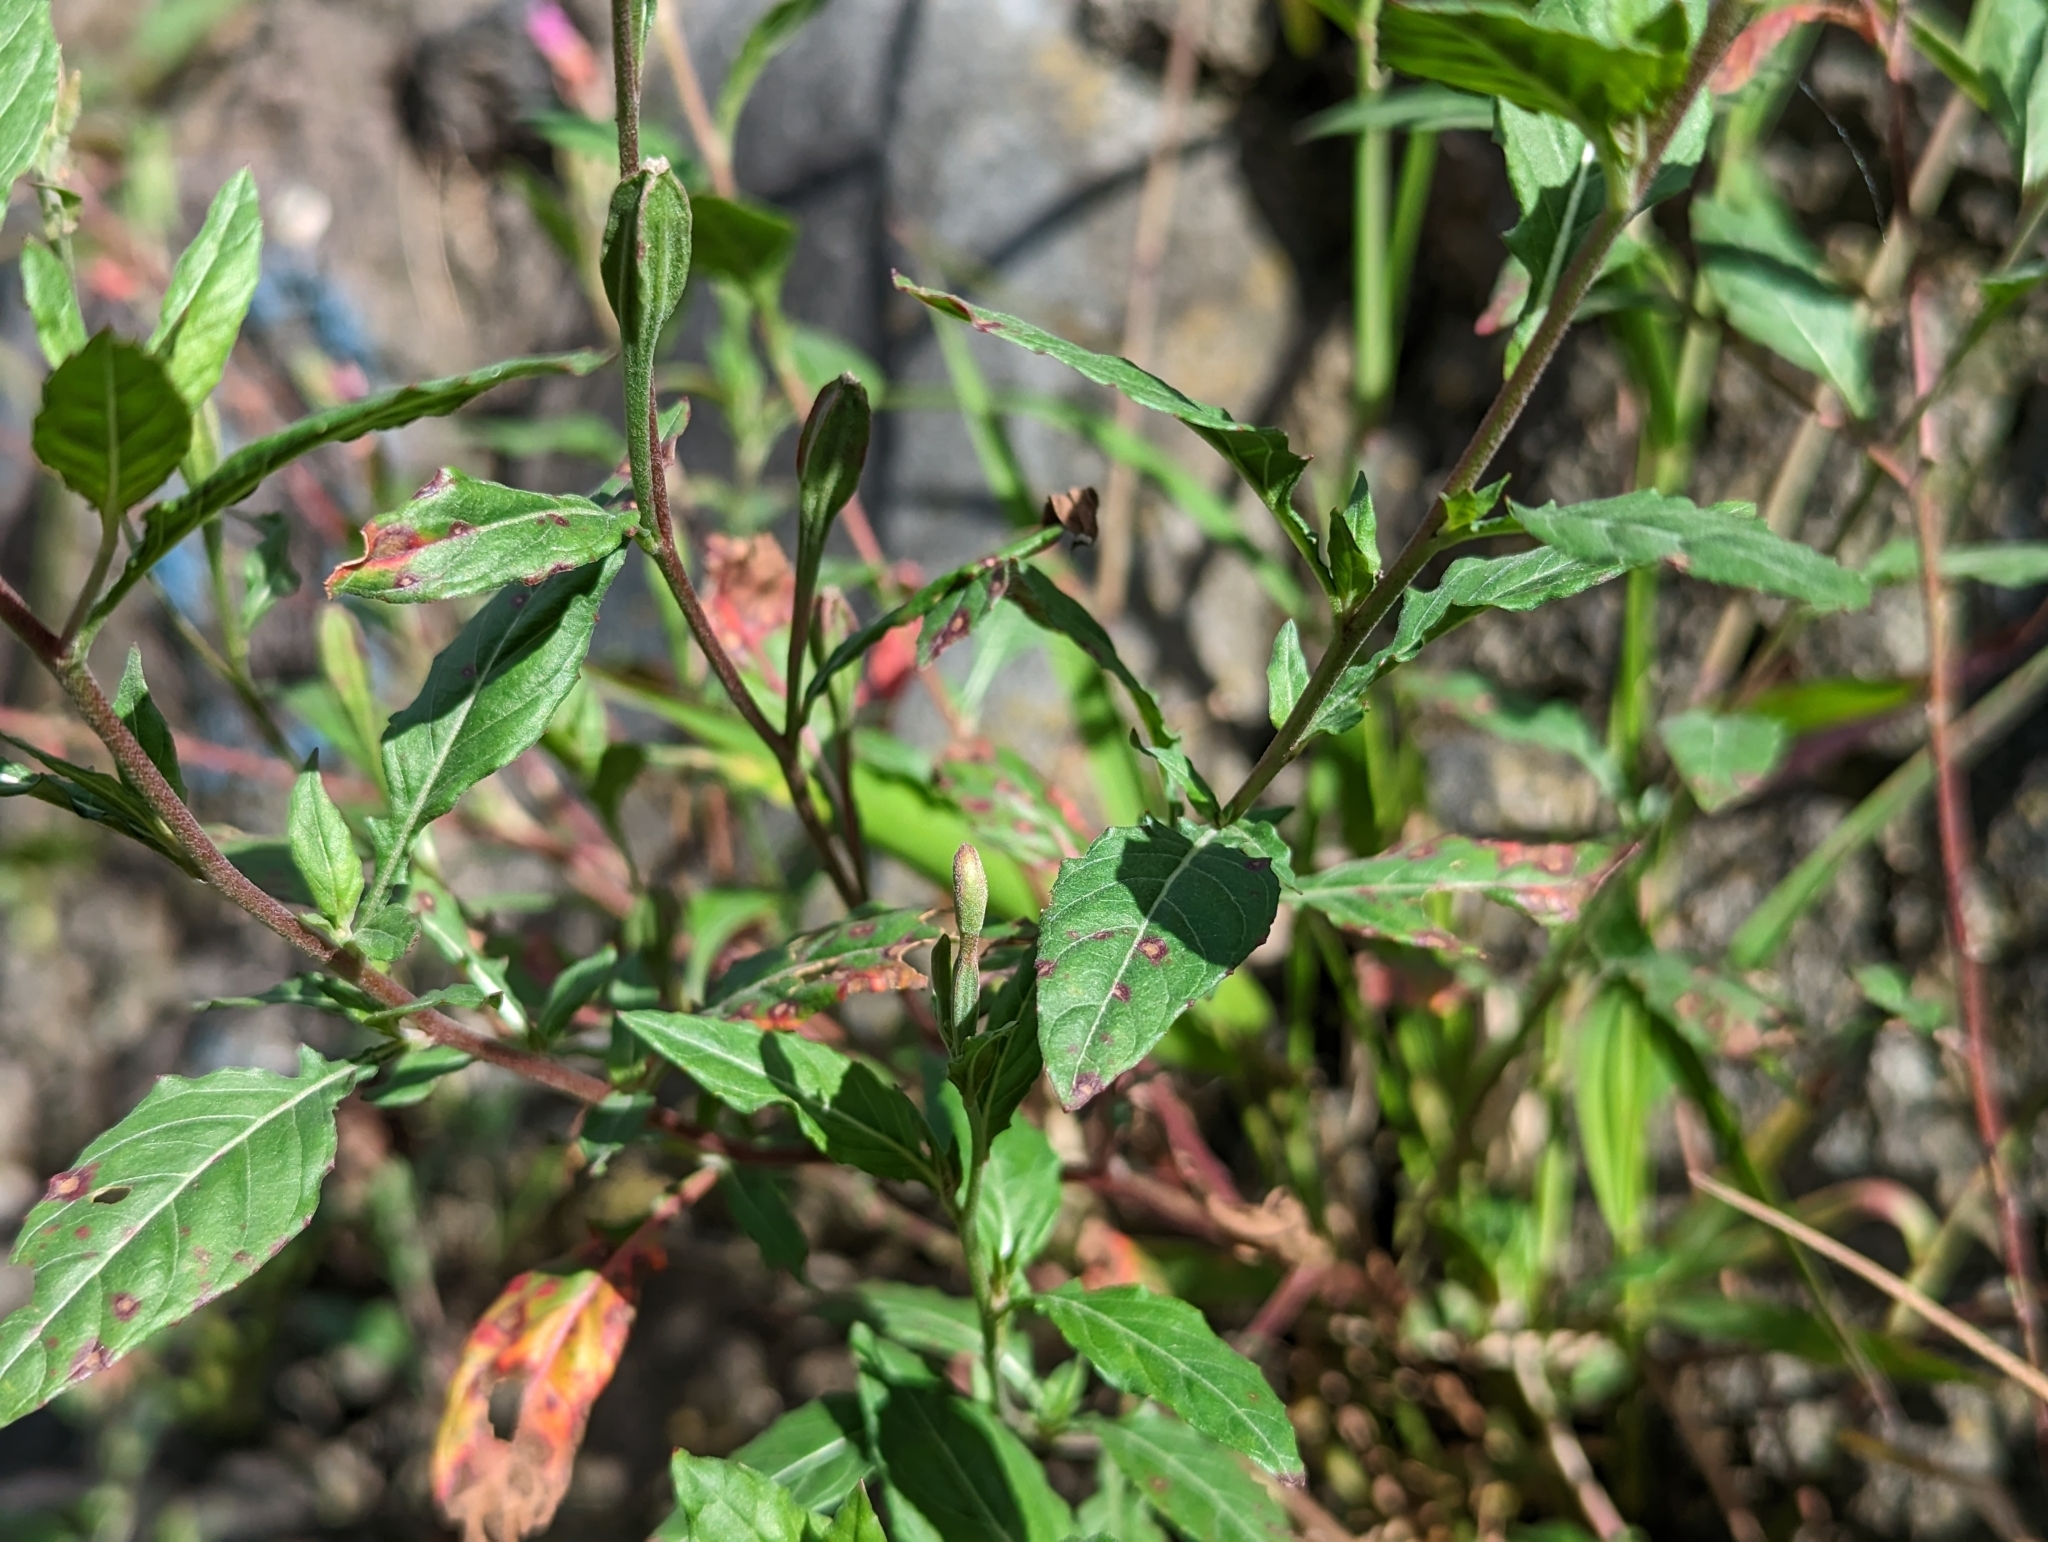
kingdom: Plantae
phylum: Tracheophyta
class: Magnoliopsida
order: Myrtales
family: Onagraceae
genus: Oenothera
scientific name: Oenothera rosea
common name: Rosy evening-primrose
